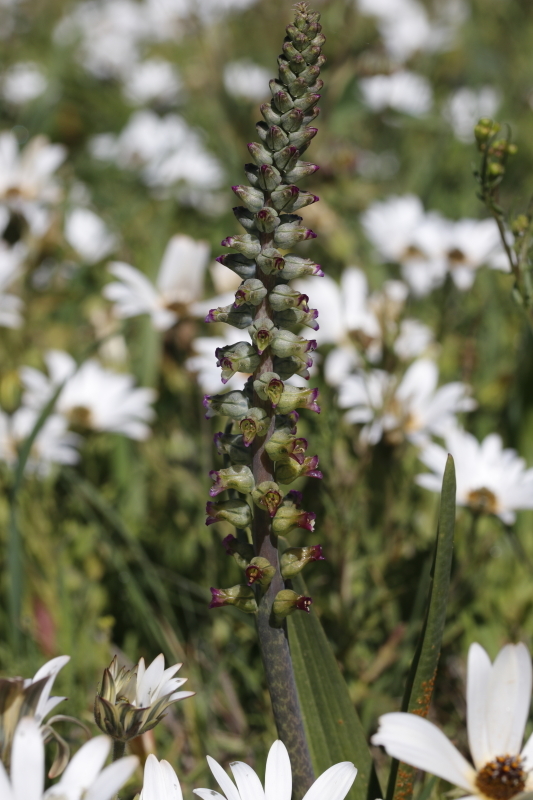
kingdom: Plantae
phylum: Tracheophyta
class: Liliopsida
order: Asparagales
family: Asparagaceae
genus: Lachenalia
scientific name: Lachenalia obscura
